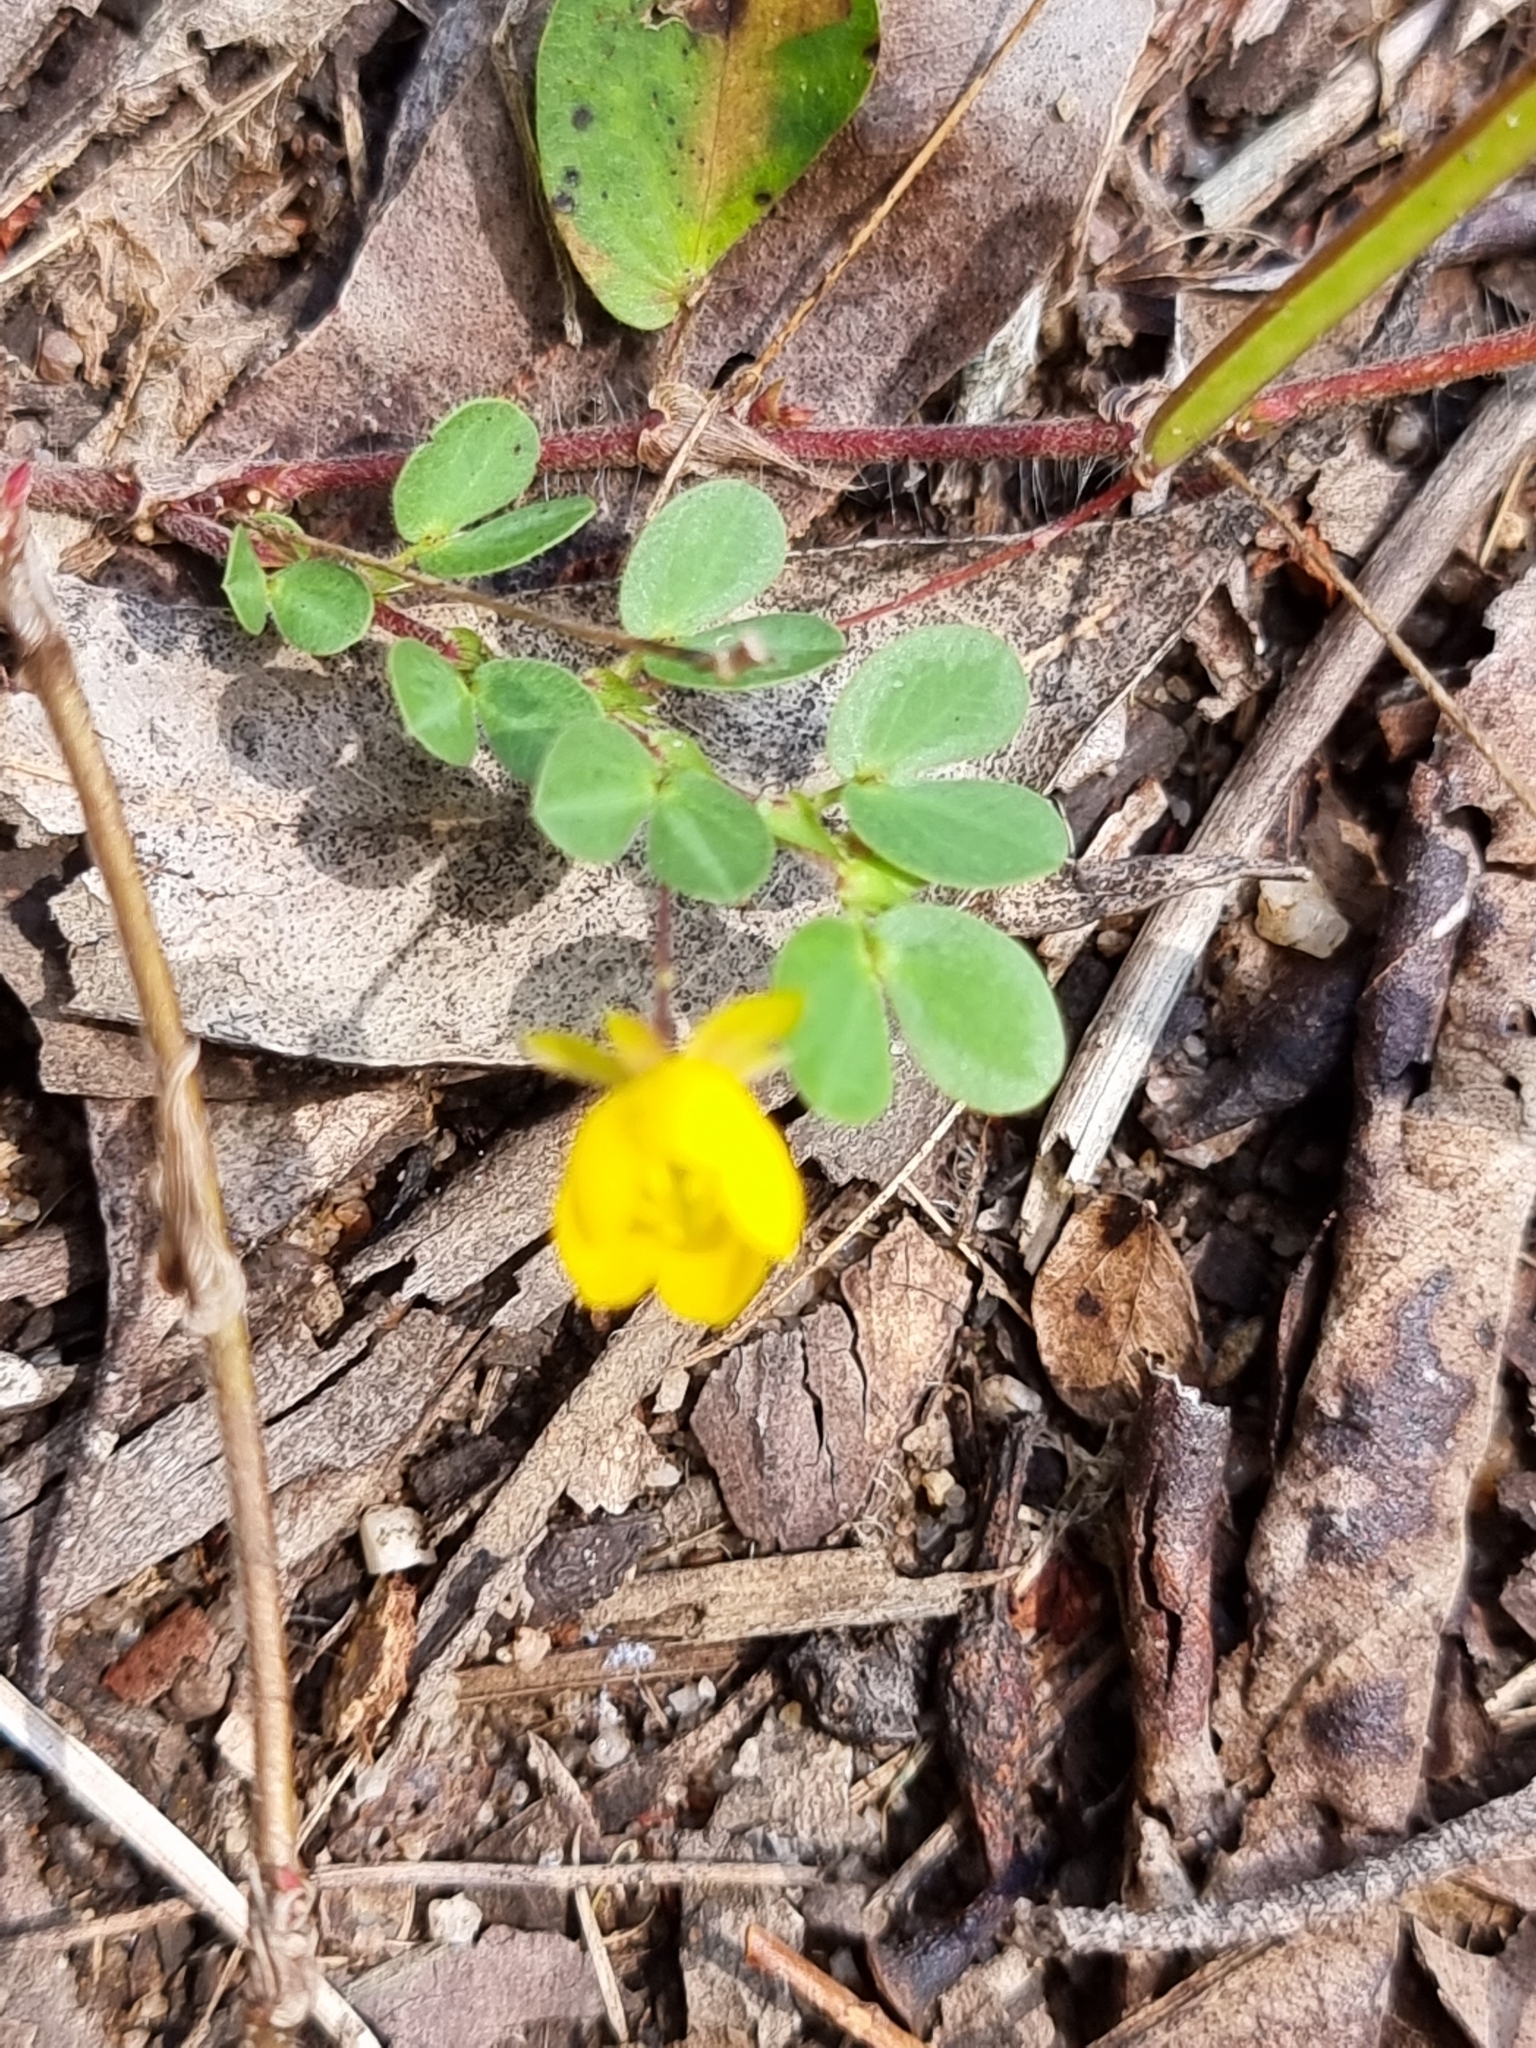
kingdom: Plantae
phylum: Tracheophyta
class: Magnoliopsida
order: Fabales
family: Fabaceae
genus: Chamaecrista
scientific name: Chamaecrista rotundifolia
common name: Round-leaf cassia
